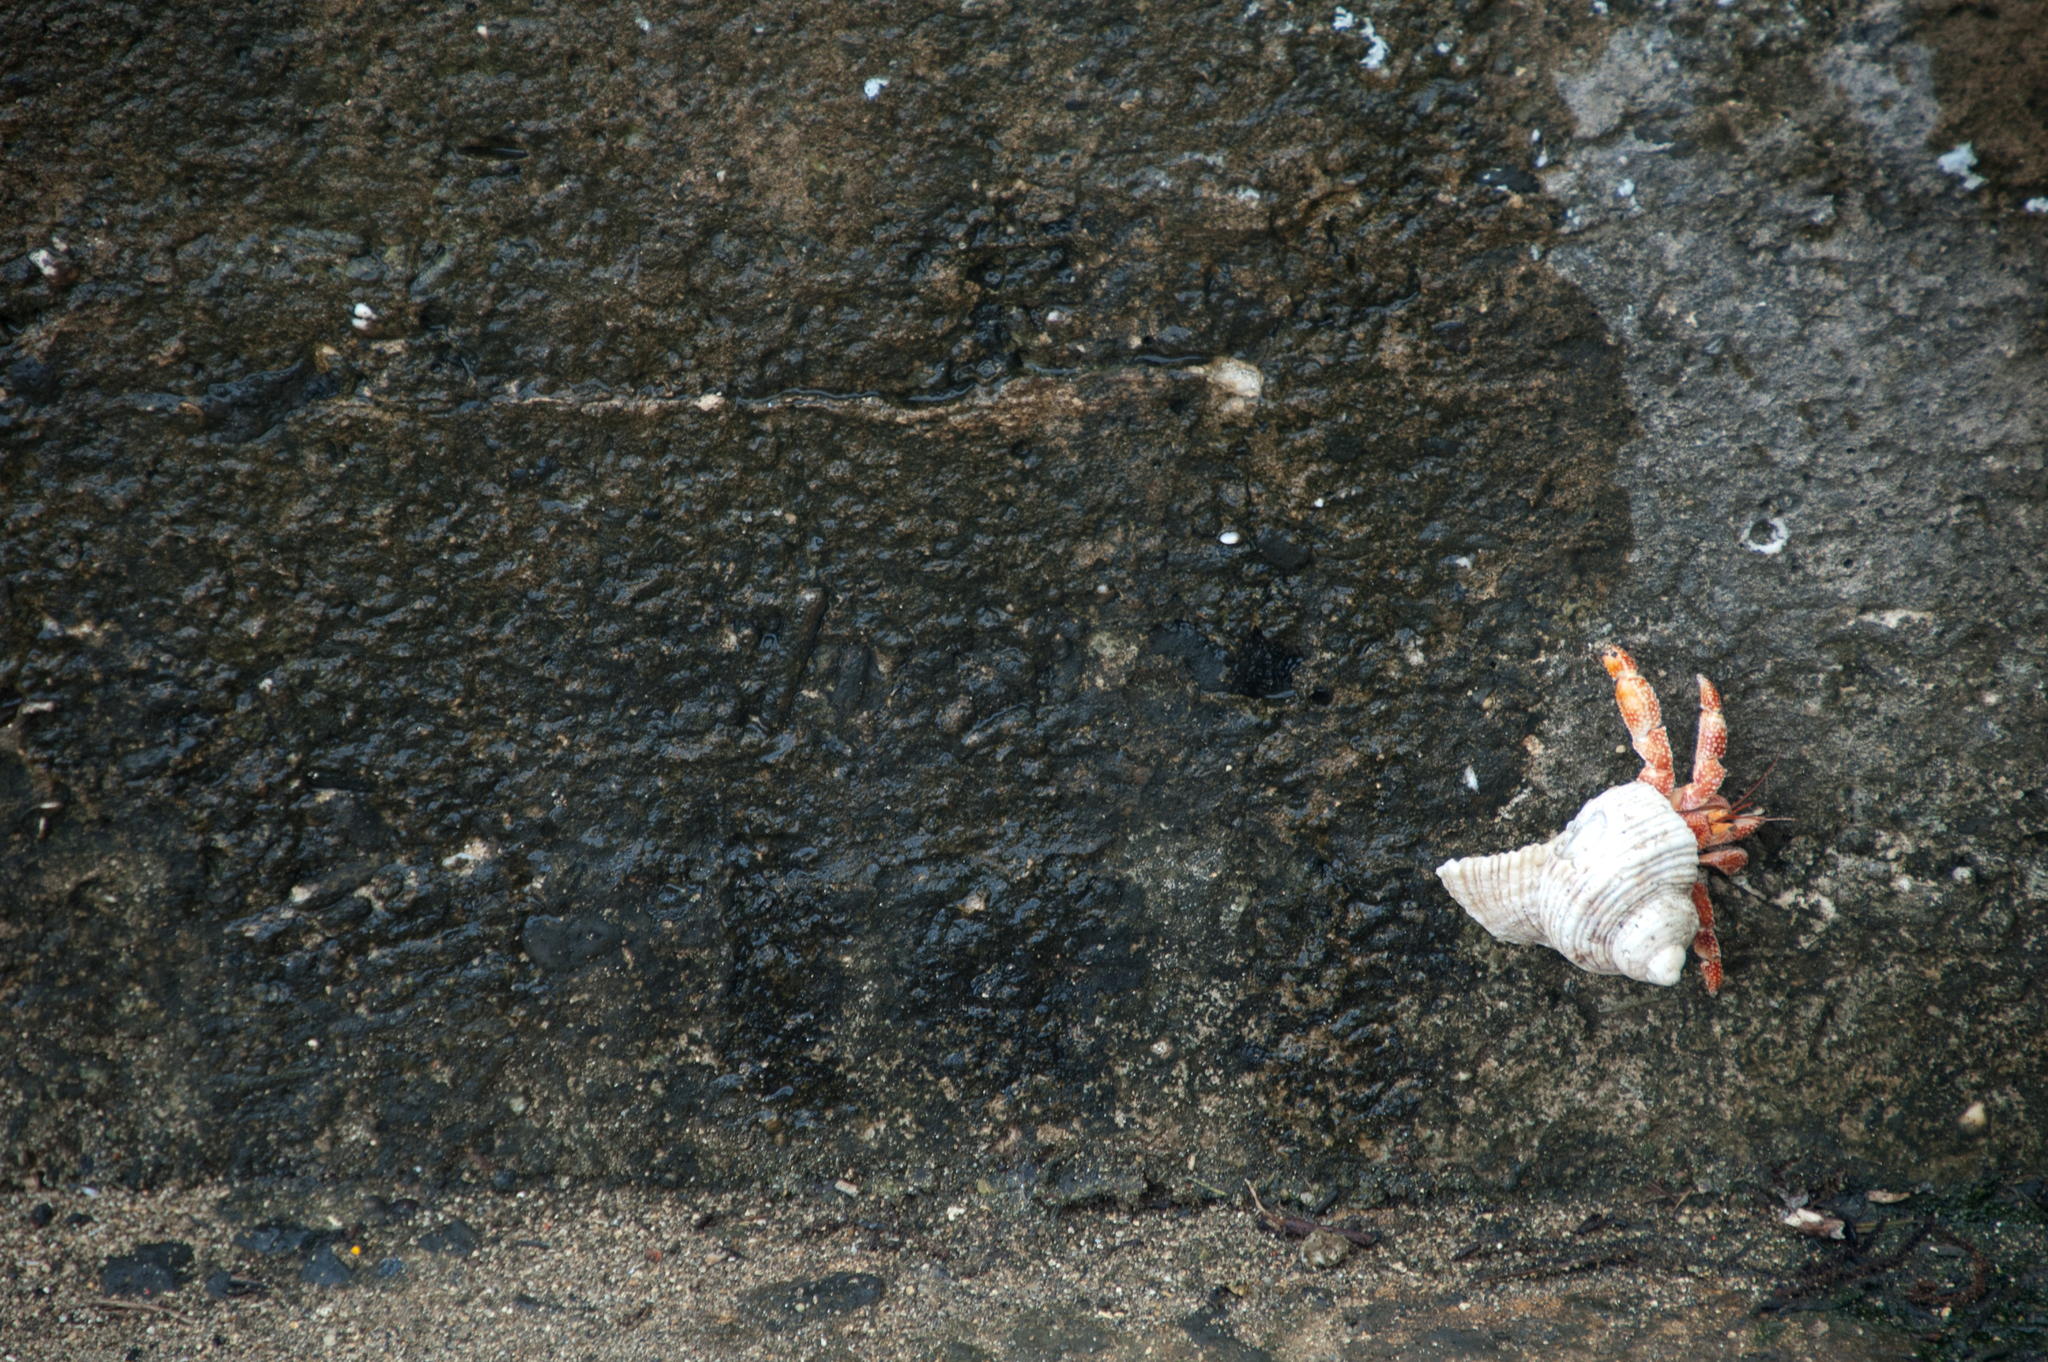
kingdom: Animalia
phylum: Arthropoda
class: Malacostraca
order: Decapoda
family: Coenobitidae
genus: Coenobita
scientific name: Coenobita perlatus
